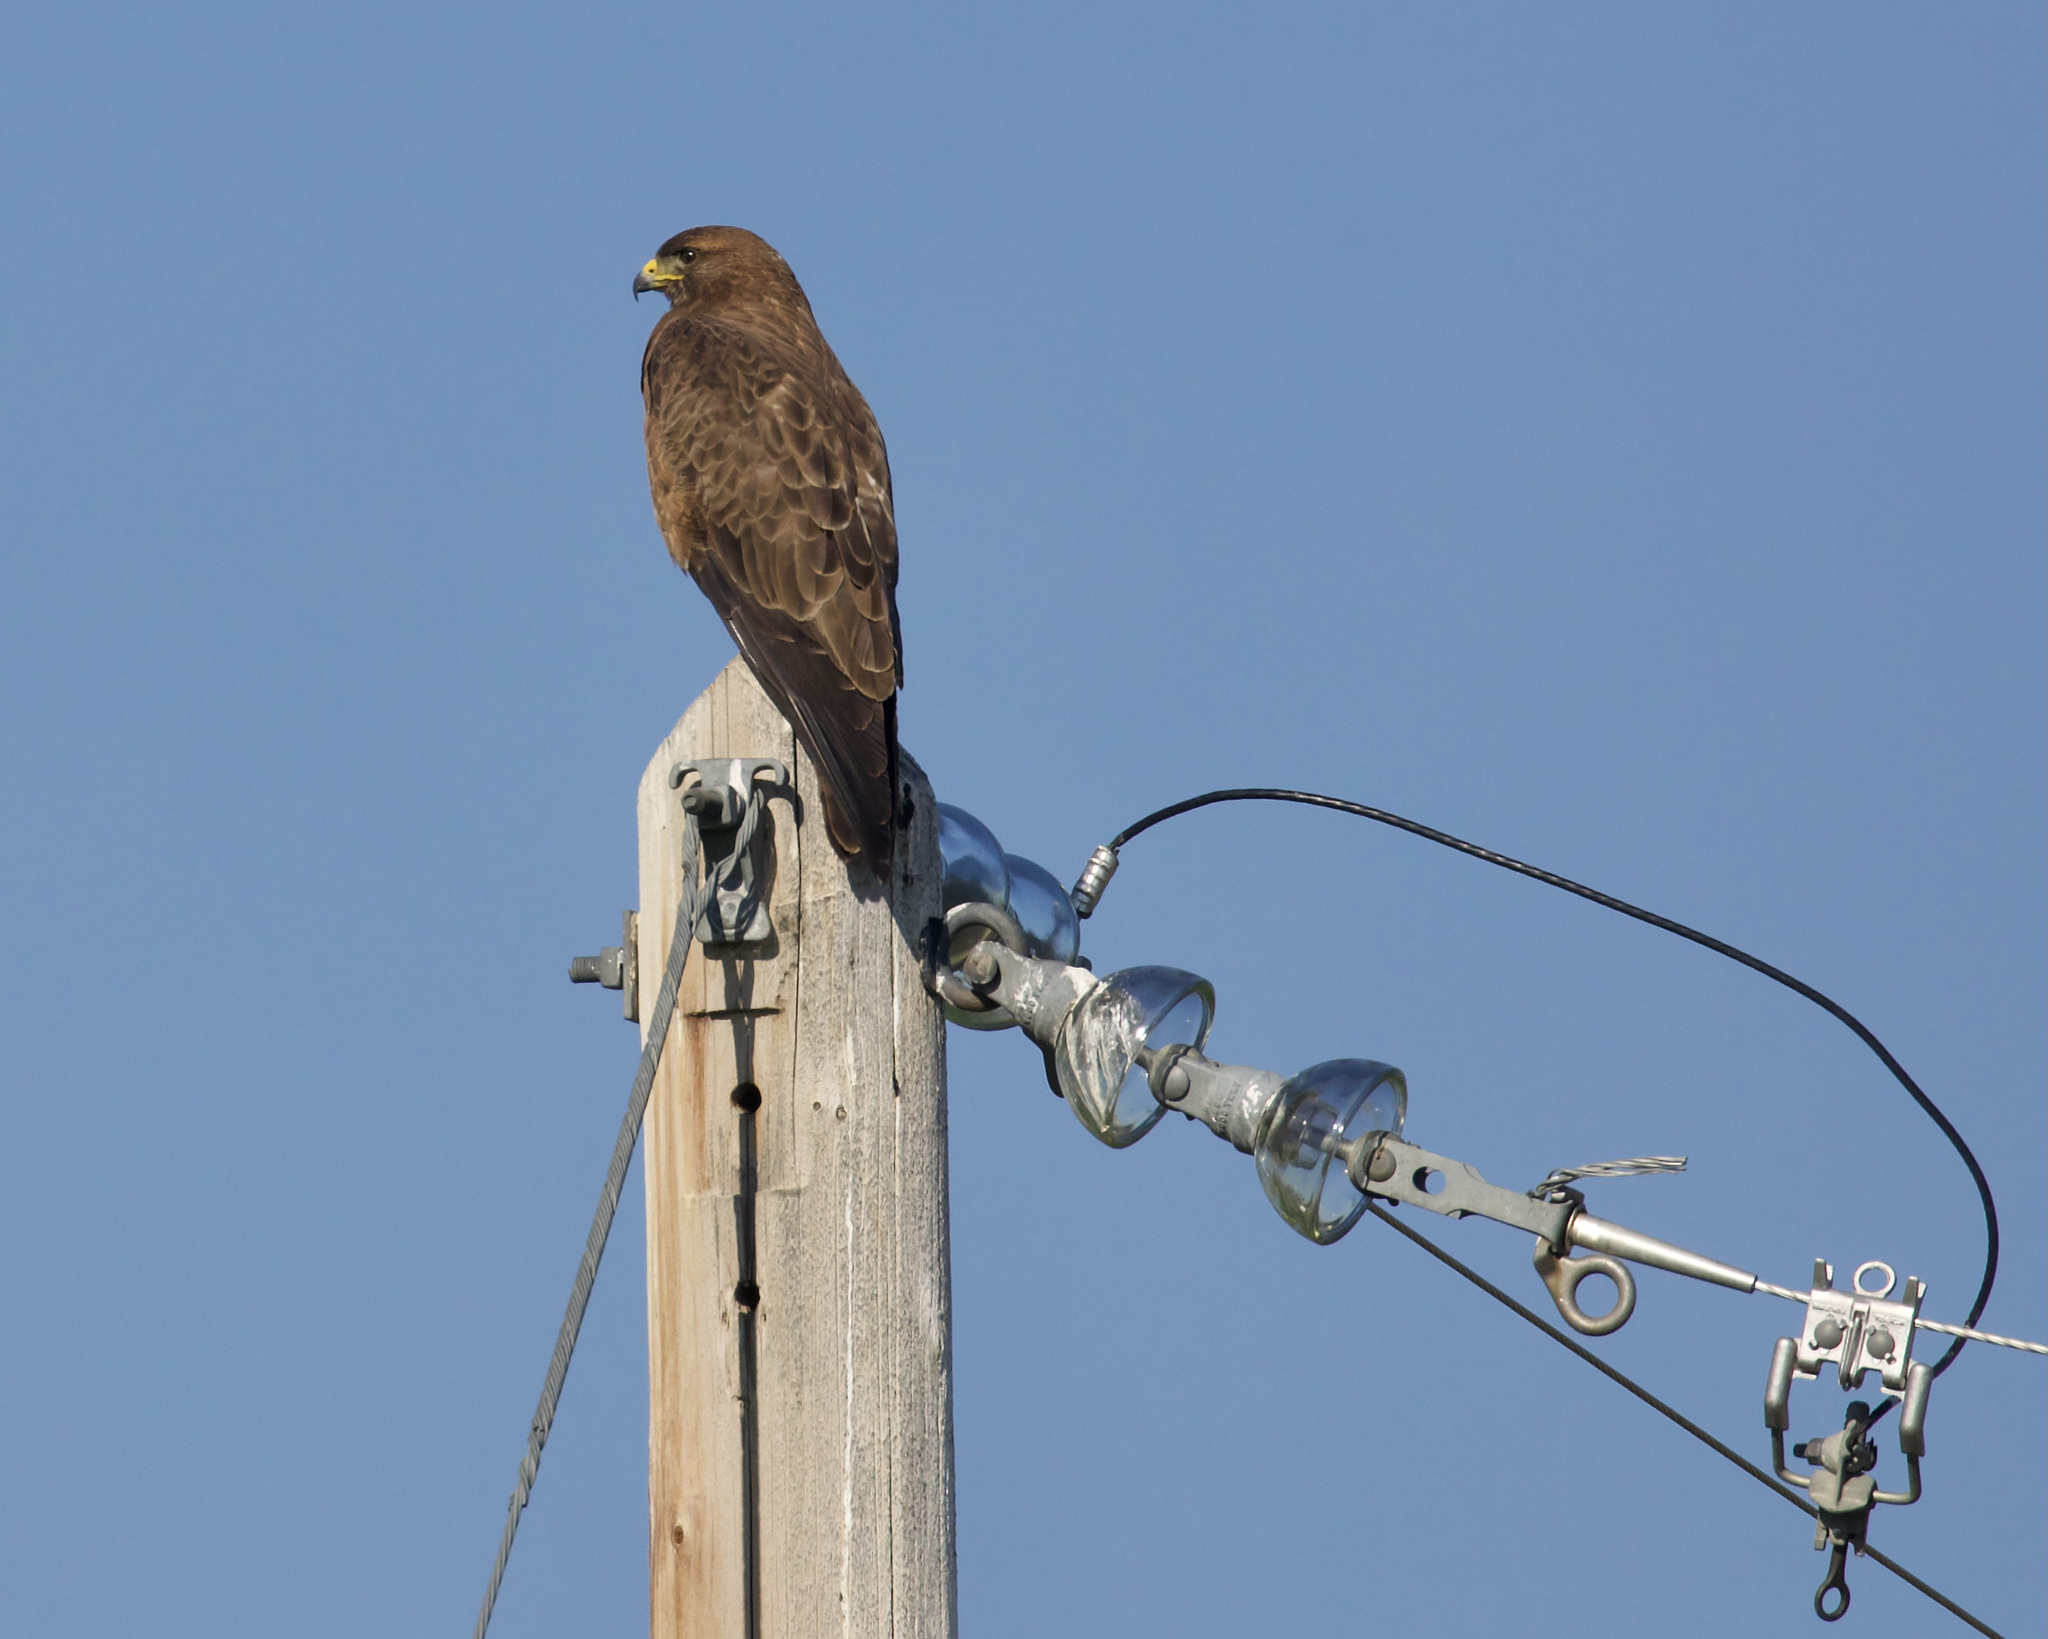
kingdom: Animalia
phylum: Chordata
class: Aves
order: Accipitriformes
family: Accipitridae
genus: Buteo
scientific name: Buteo swainsoni
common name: Swainson's hawk
